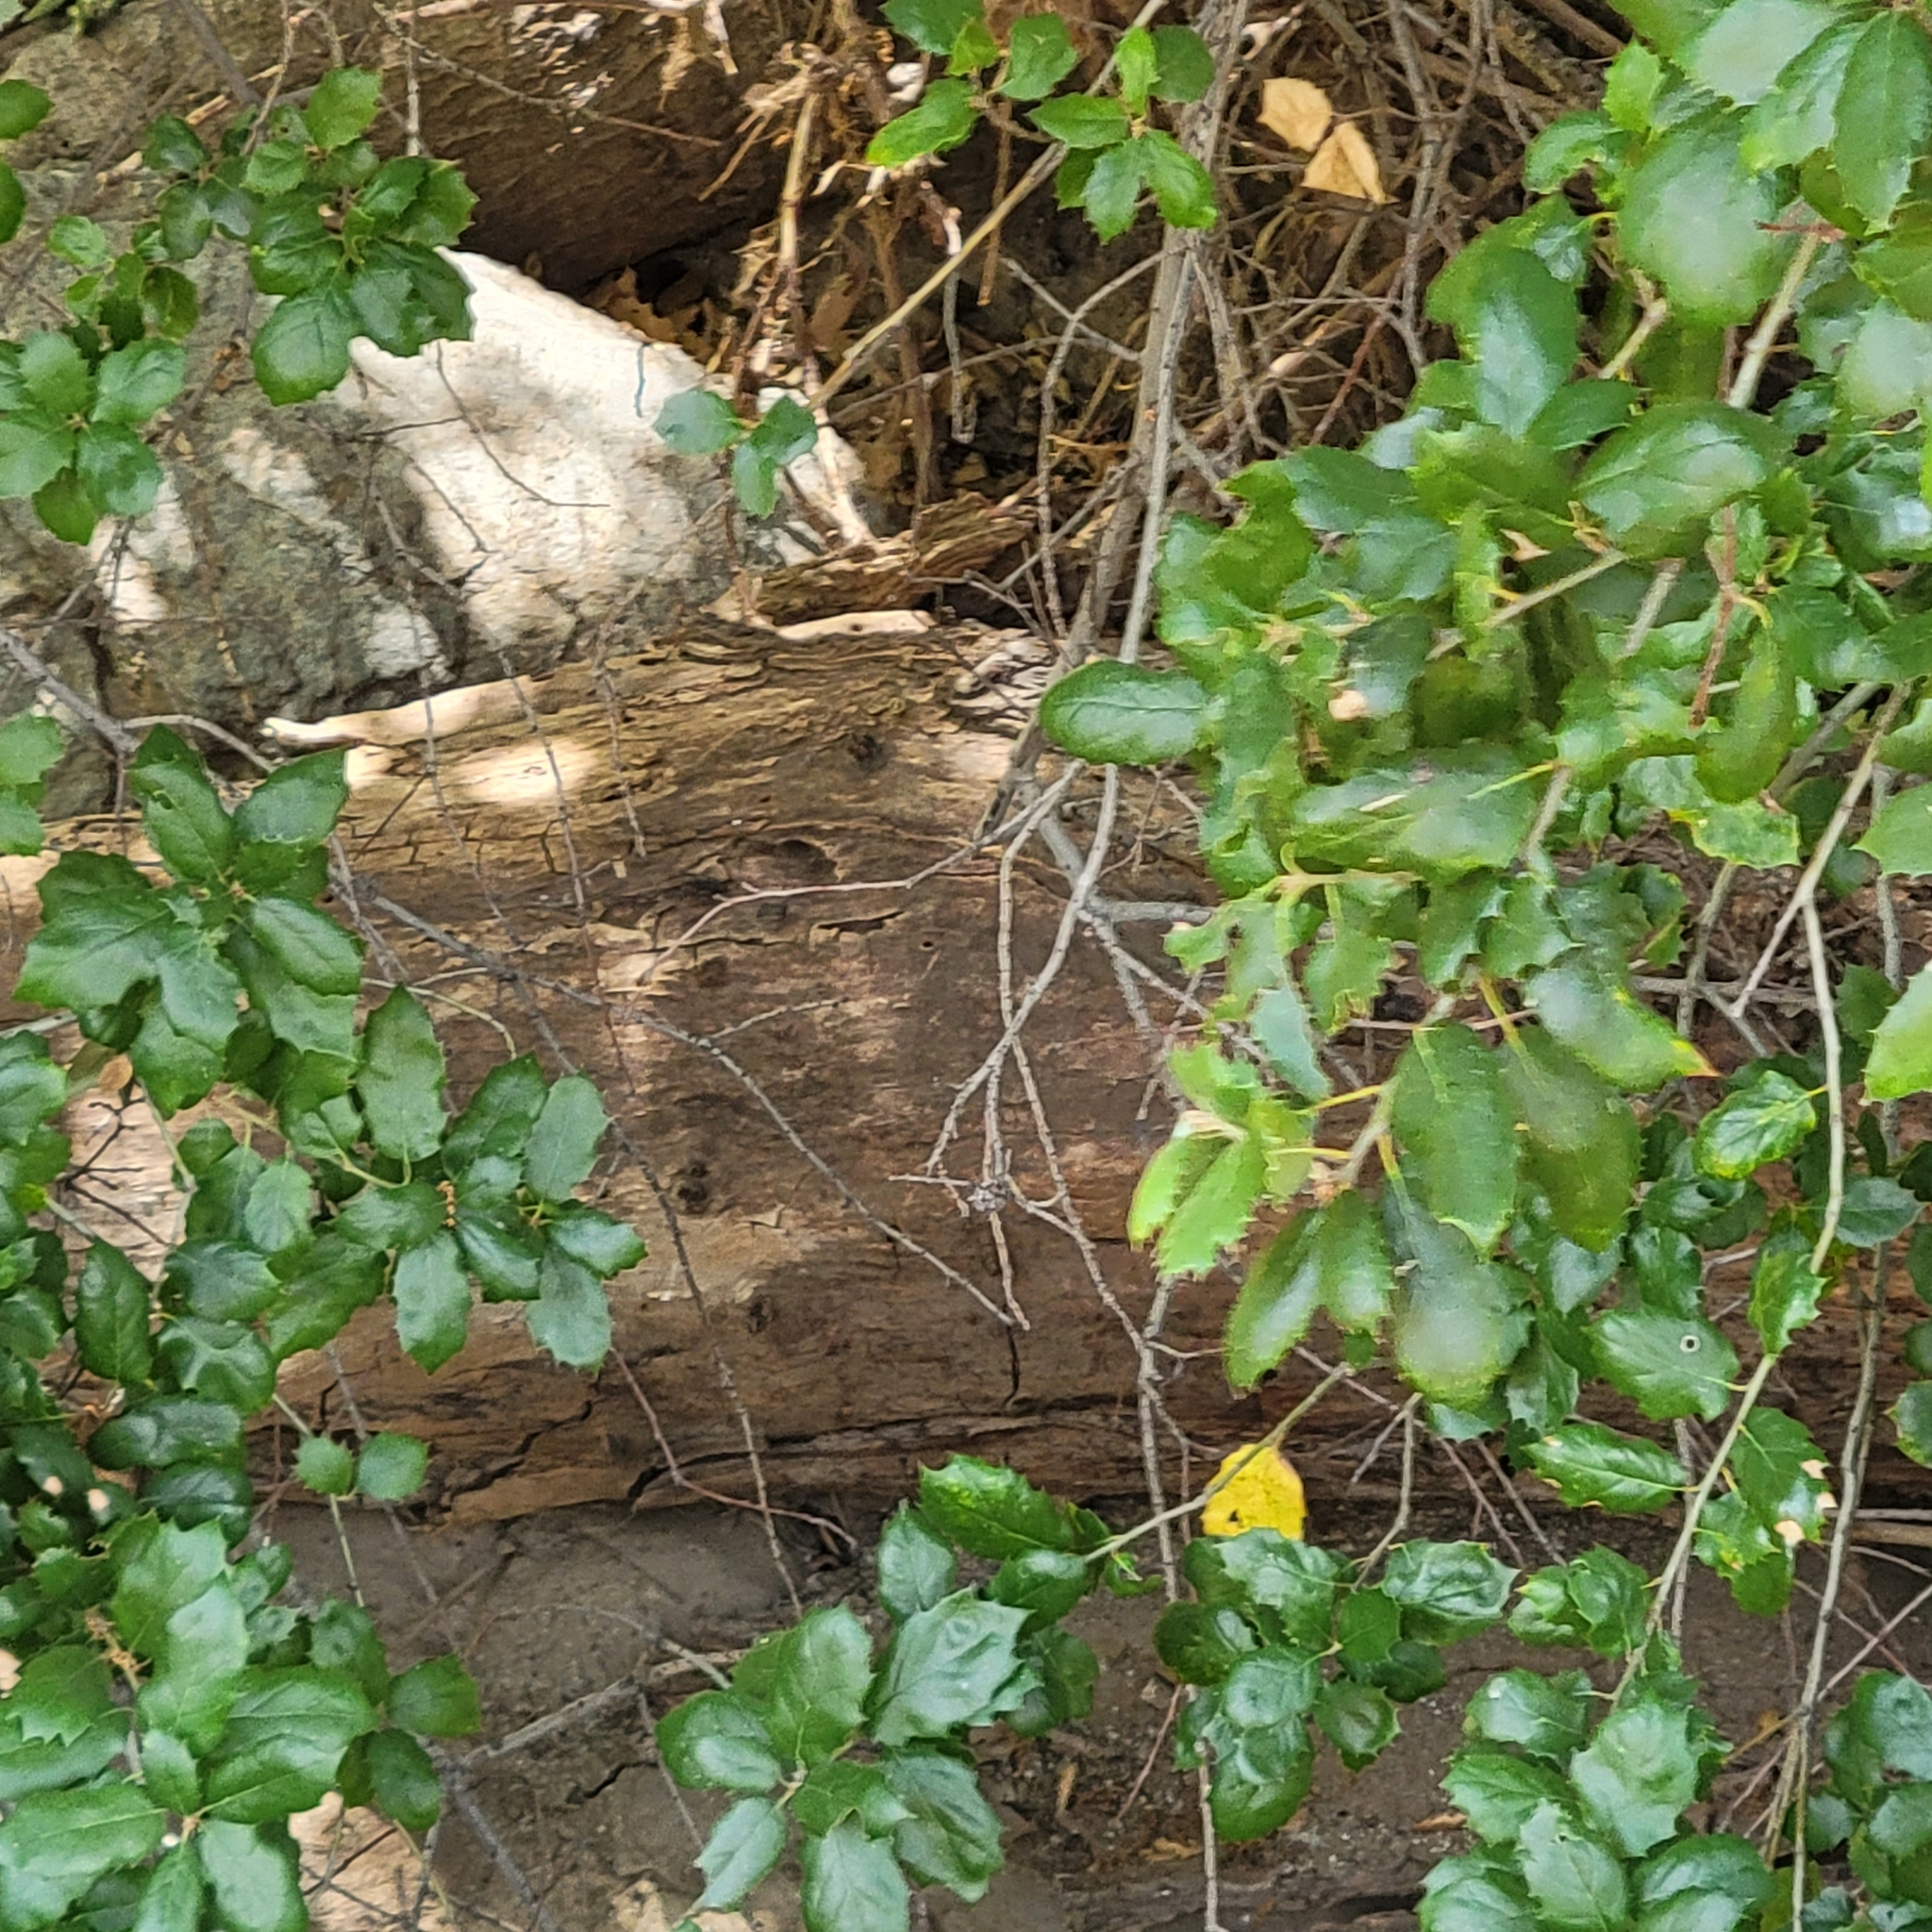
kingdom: Plantae
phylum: Tracheophyta
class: Magnoliopsida
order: Fagales
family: Fagaceae
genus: Quercus
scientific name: Quercus agrifolia
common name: California live oak
